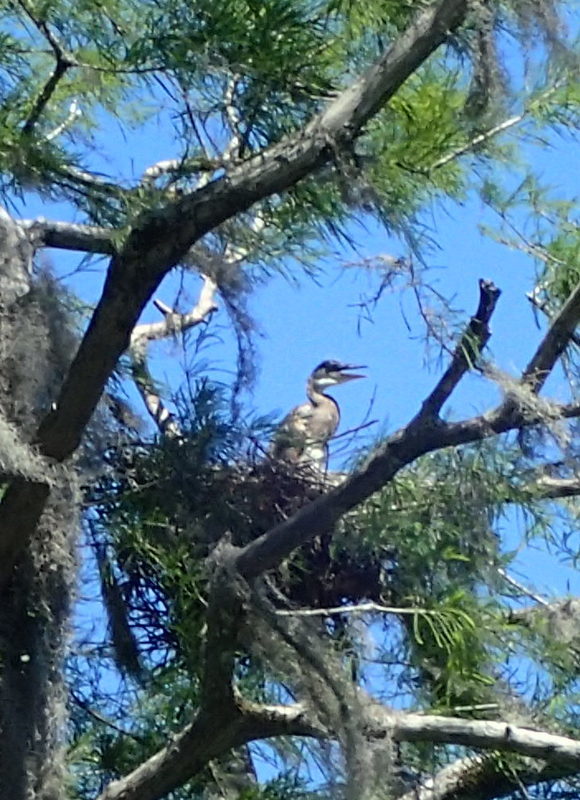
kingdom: Animalia
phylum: Chordata
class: Aves
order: Pelecaniformes
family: Ardeidae
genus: Ardea
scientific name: Ardea herodias
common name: Great blue heron
